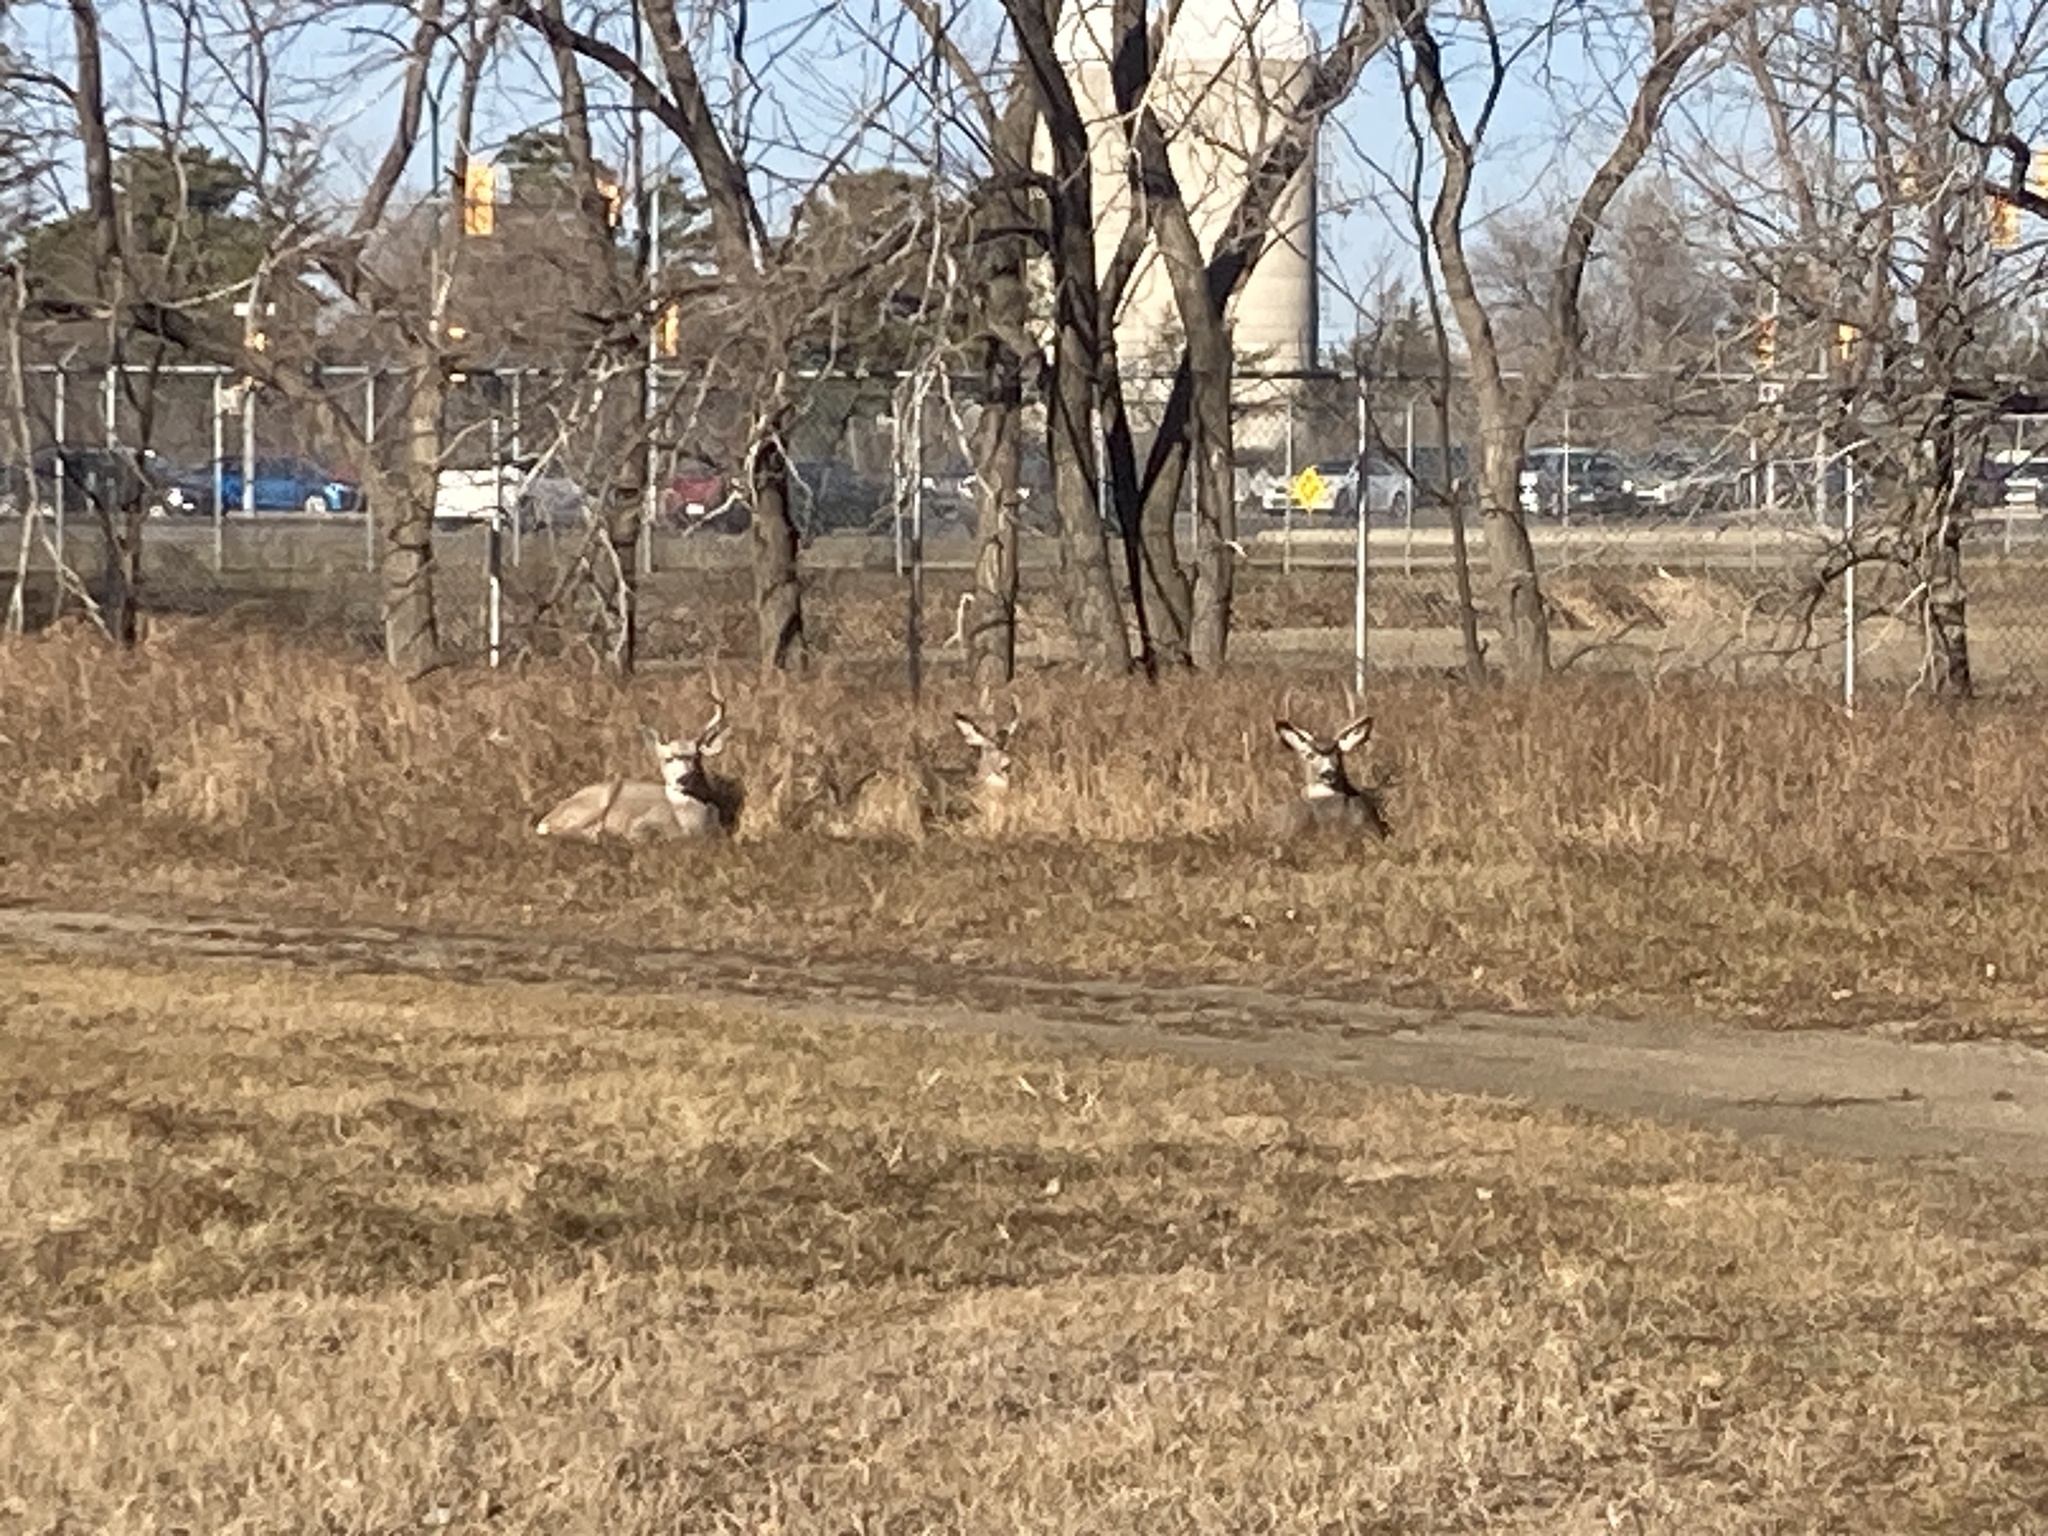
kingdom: Animalia
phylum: Chordata
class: Mammalia
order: Artiodactyla
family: Cervidae
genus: Odocoileus
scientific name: Odocoileus hemionus
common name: Mule deer
